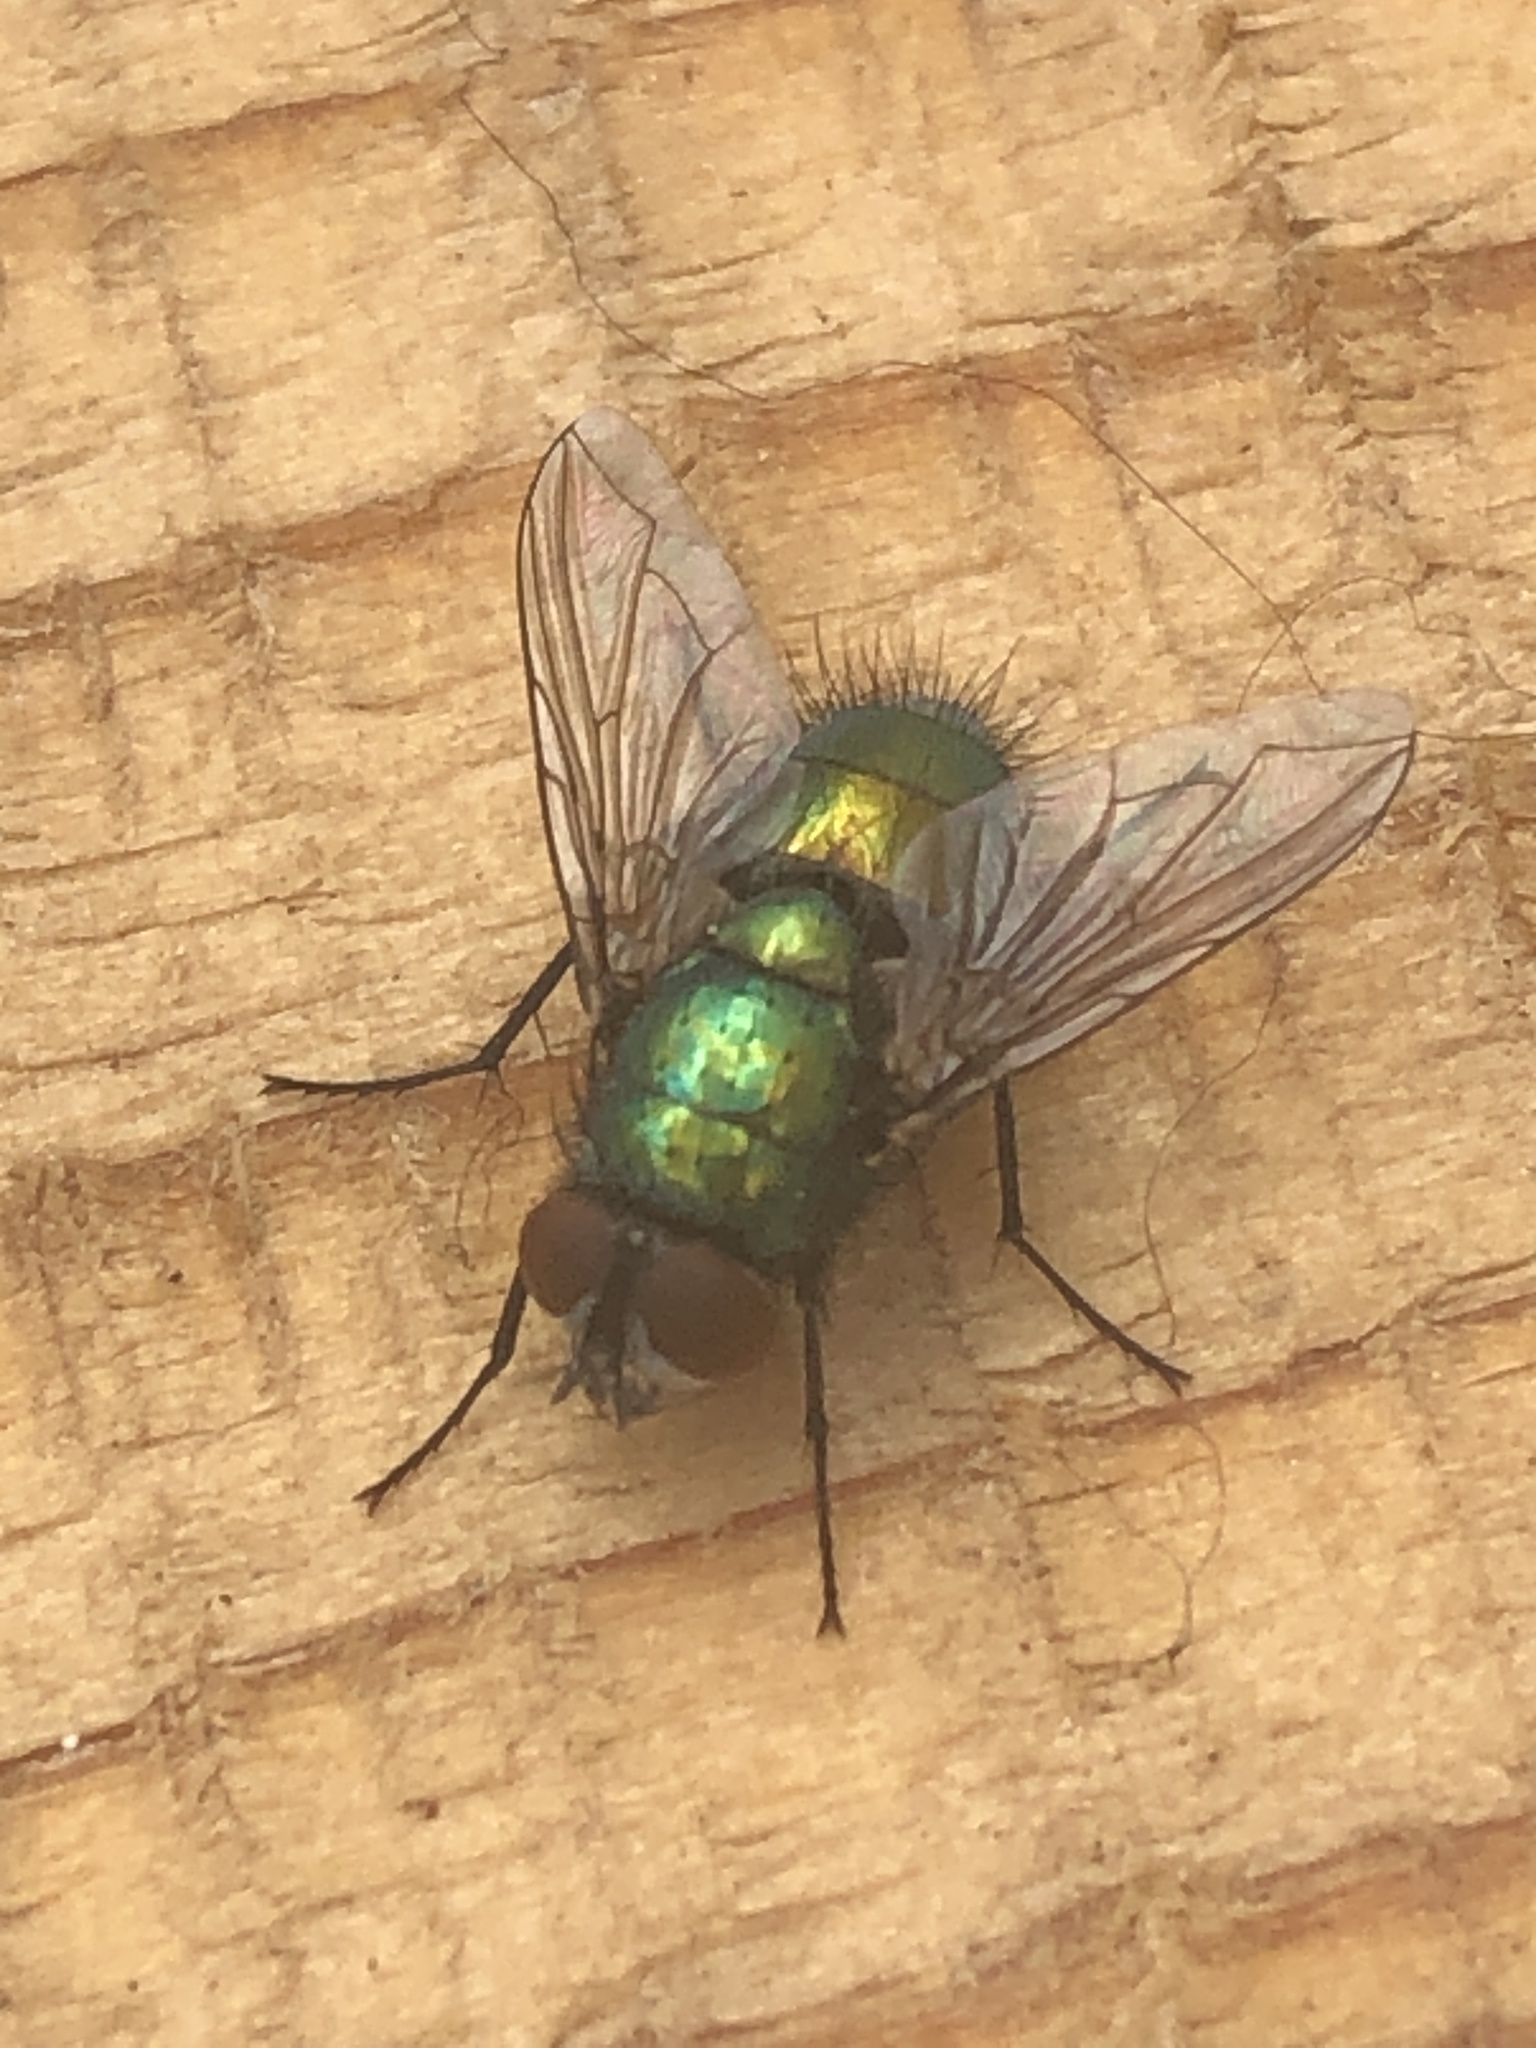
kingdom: Animalia
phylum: Arthropoda
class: Insecta
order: Diptera
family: Calliphoridae
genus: Lucilia
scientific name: Lucilia sericata
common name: Blow fly
